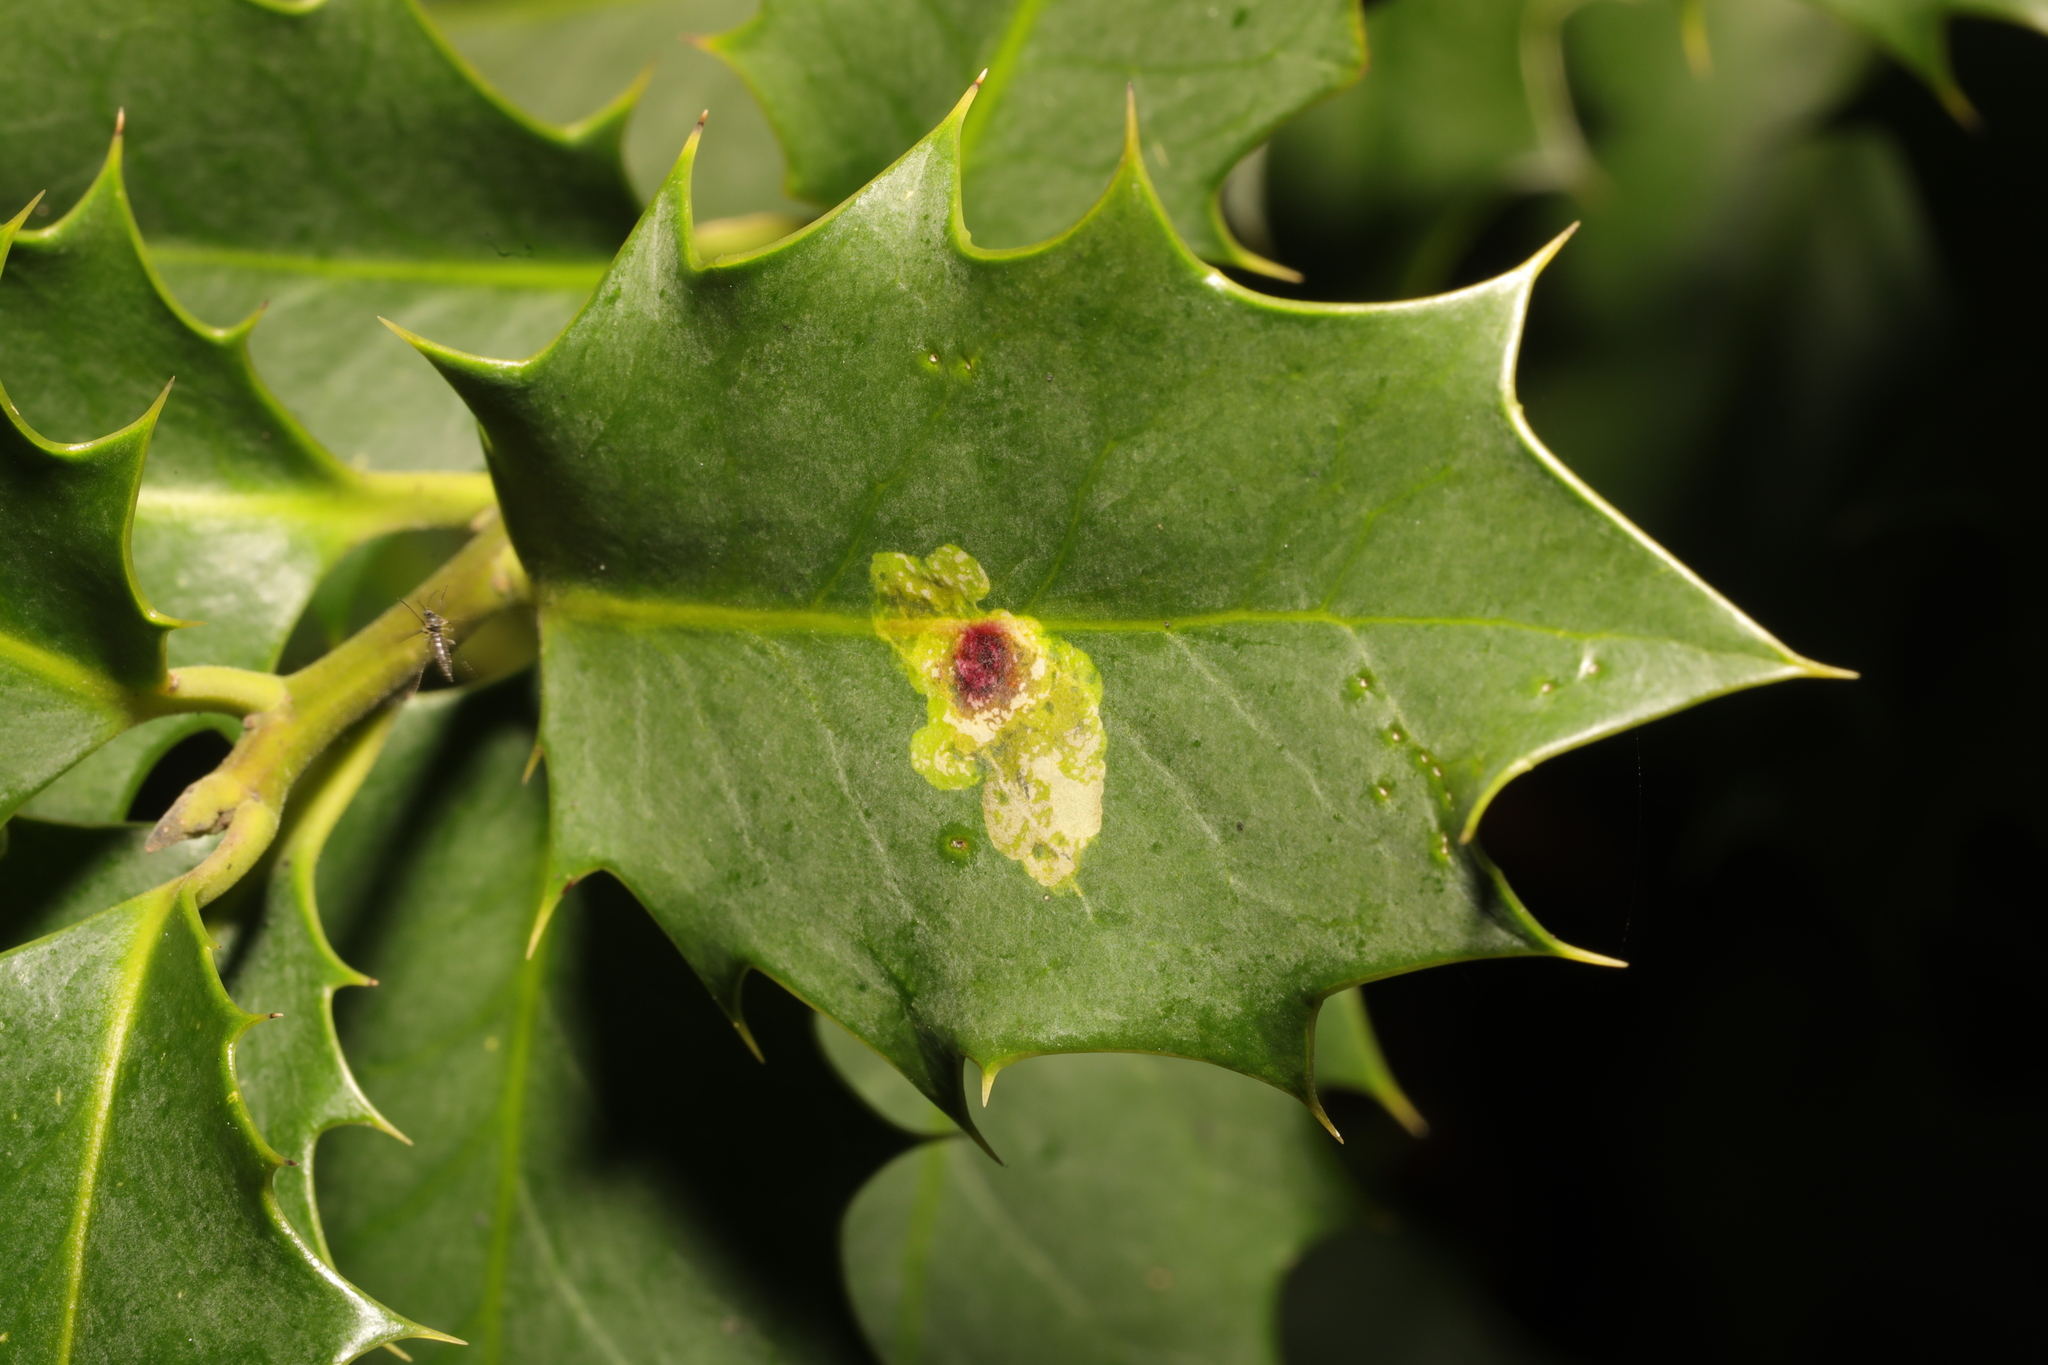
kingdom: Animalia
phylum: Arthropoda
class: Insecta
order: Diptera
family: Agromyzidae
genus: Phytomyza
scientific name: Phytomyza ilicis
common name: Holly leafminer
